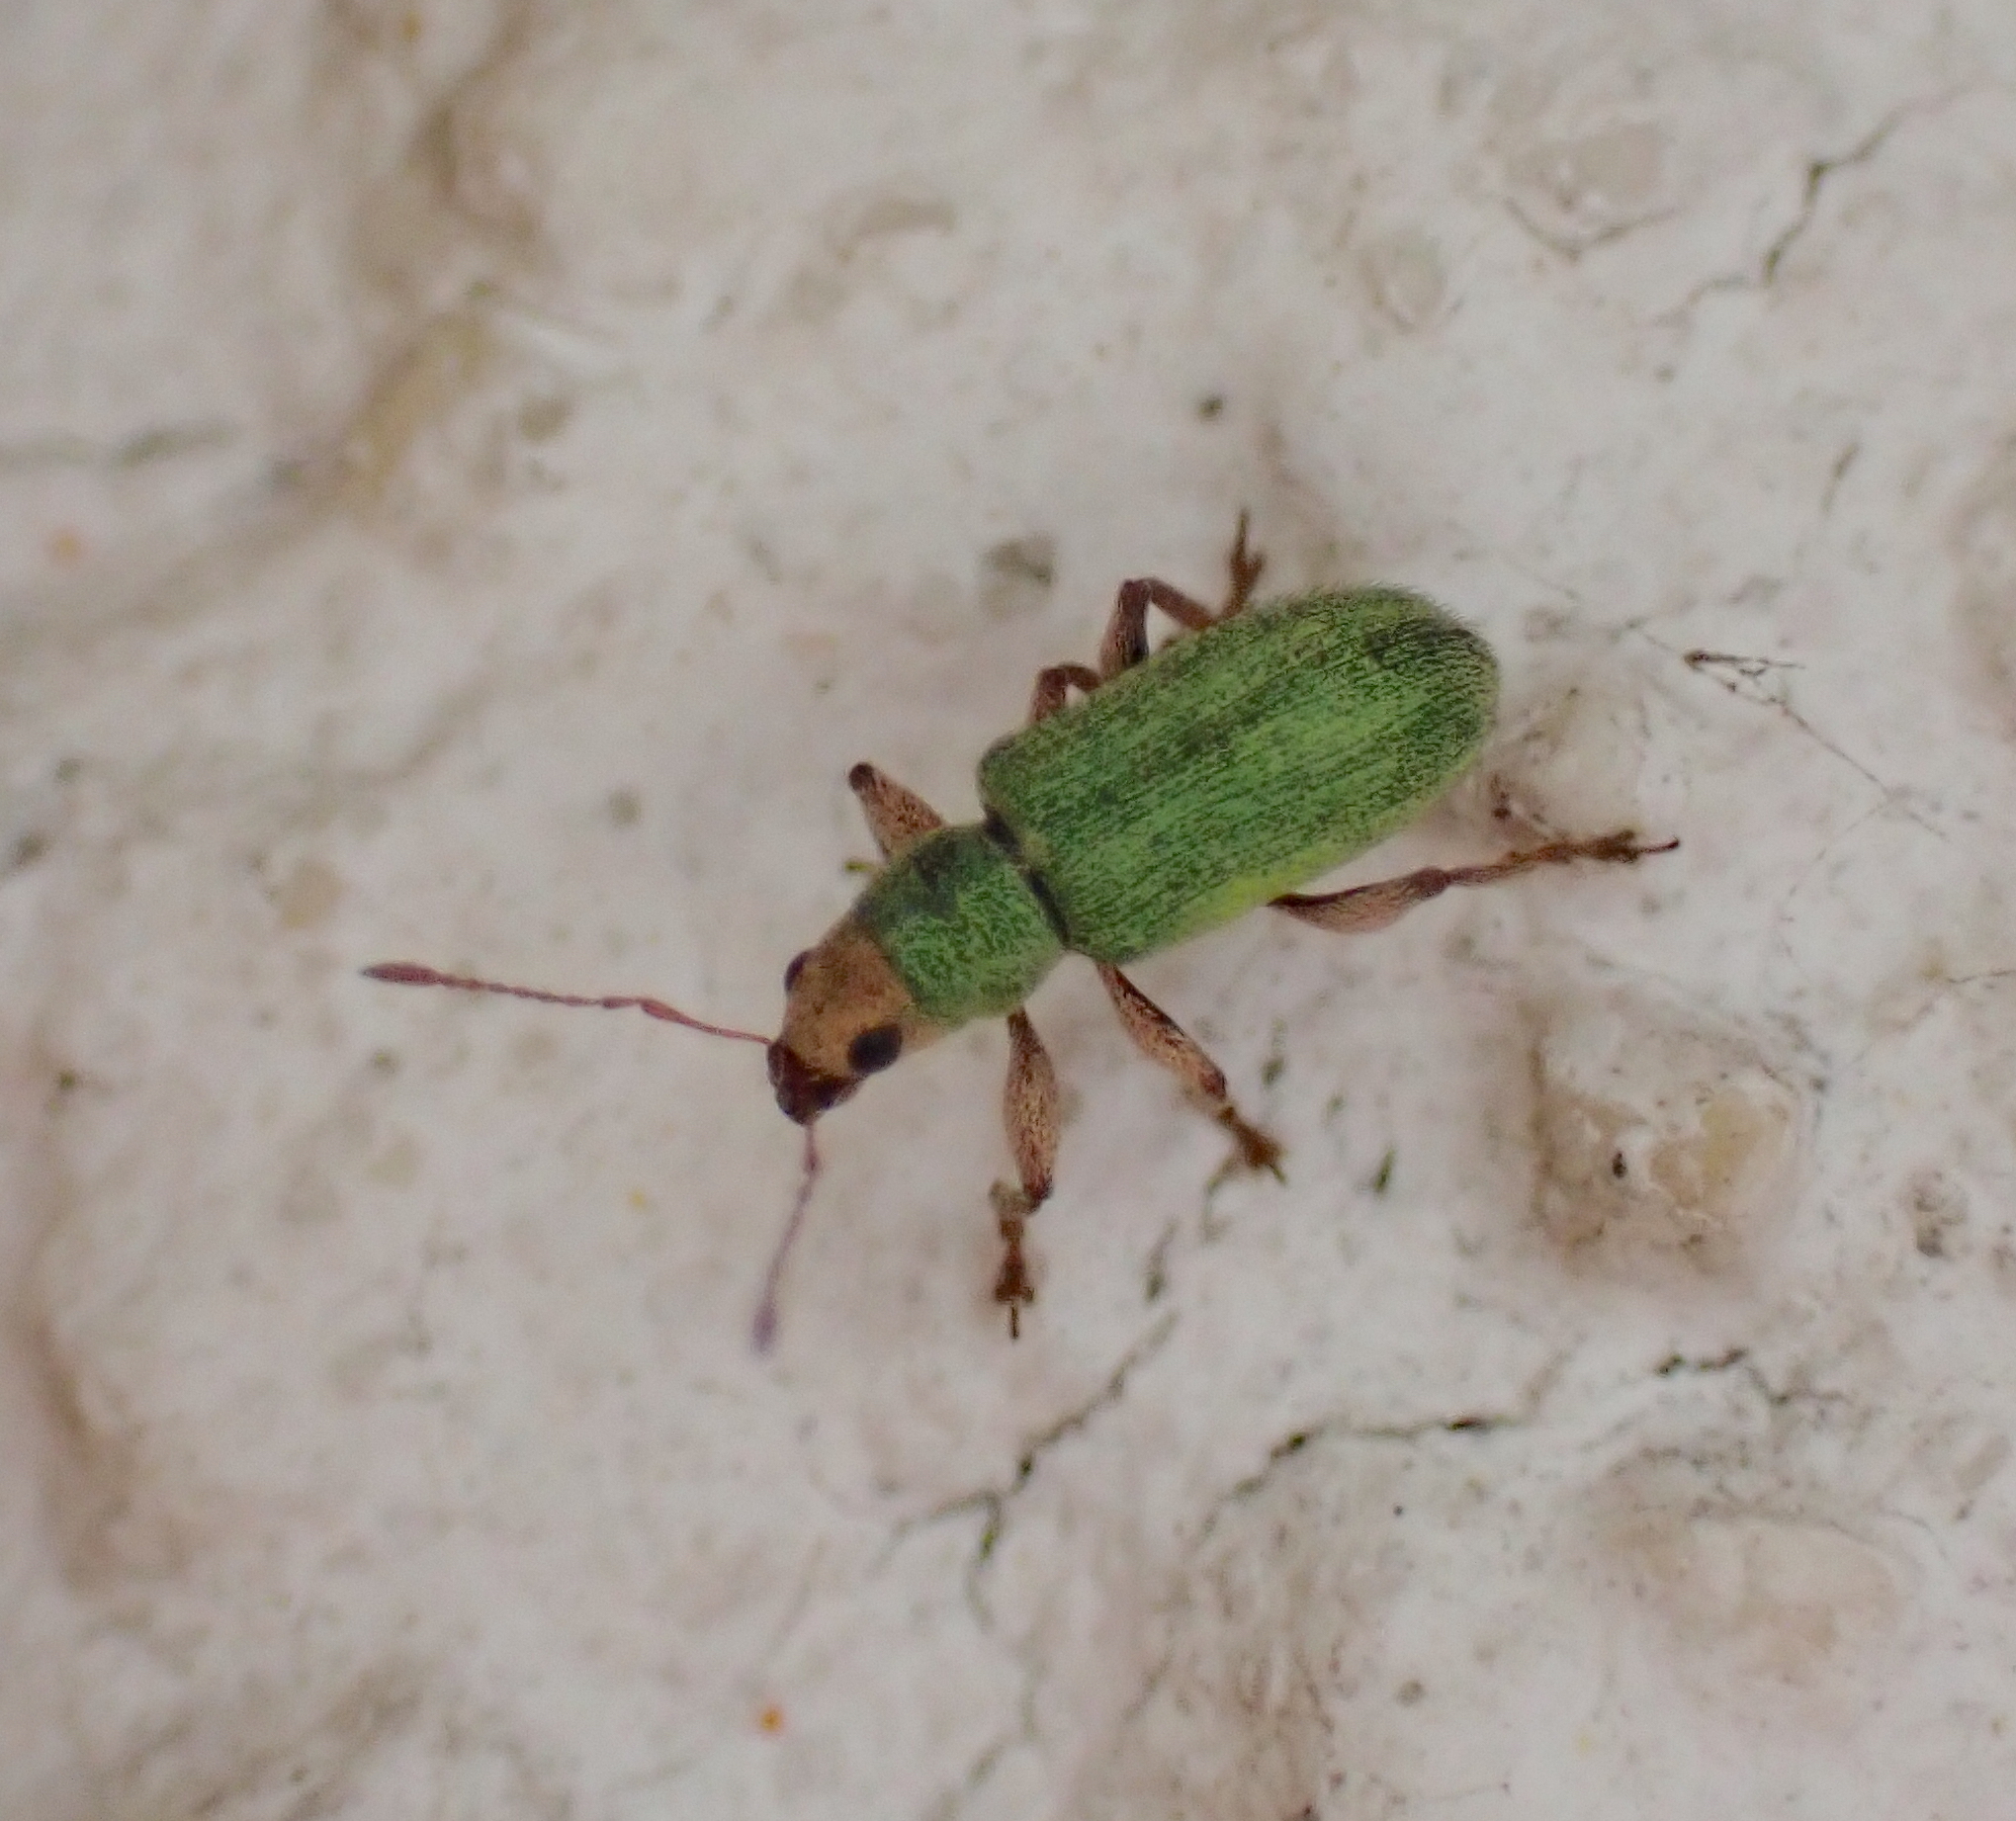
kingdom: Animalia
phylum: Arthropoda
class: Insecta
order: Coleoptera
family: Curculionidae
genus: Pachyrhinus
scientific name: Pachyrhinus lethierryi
